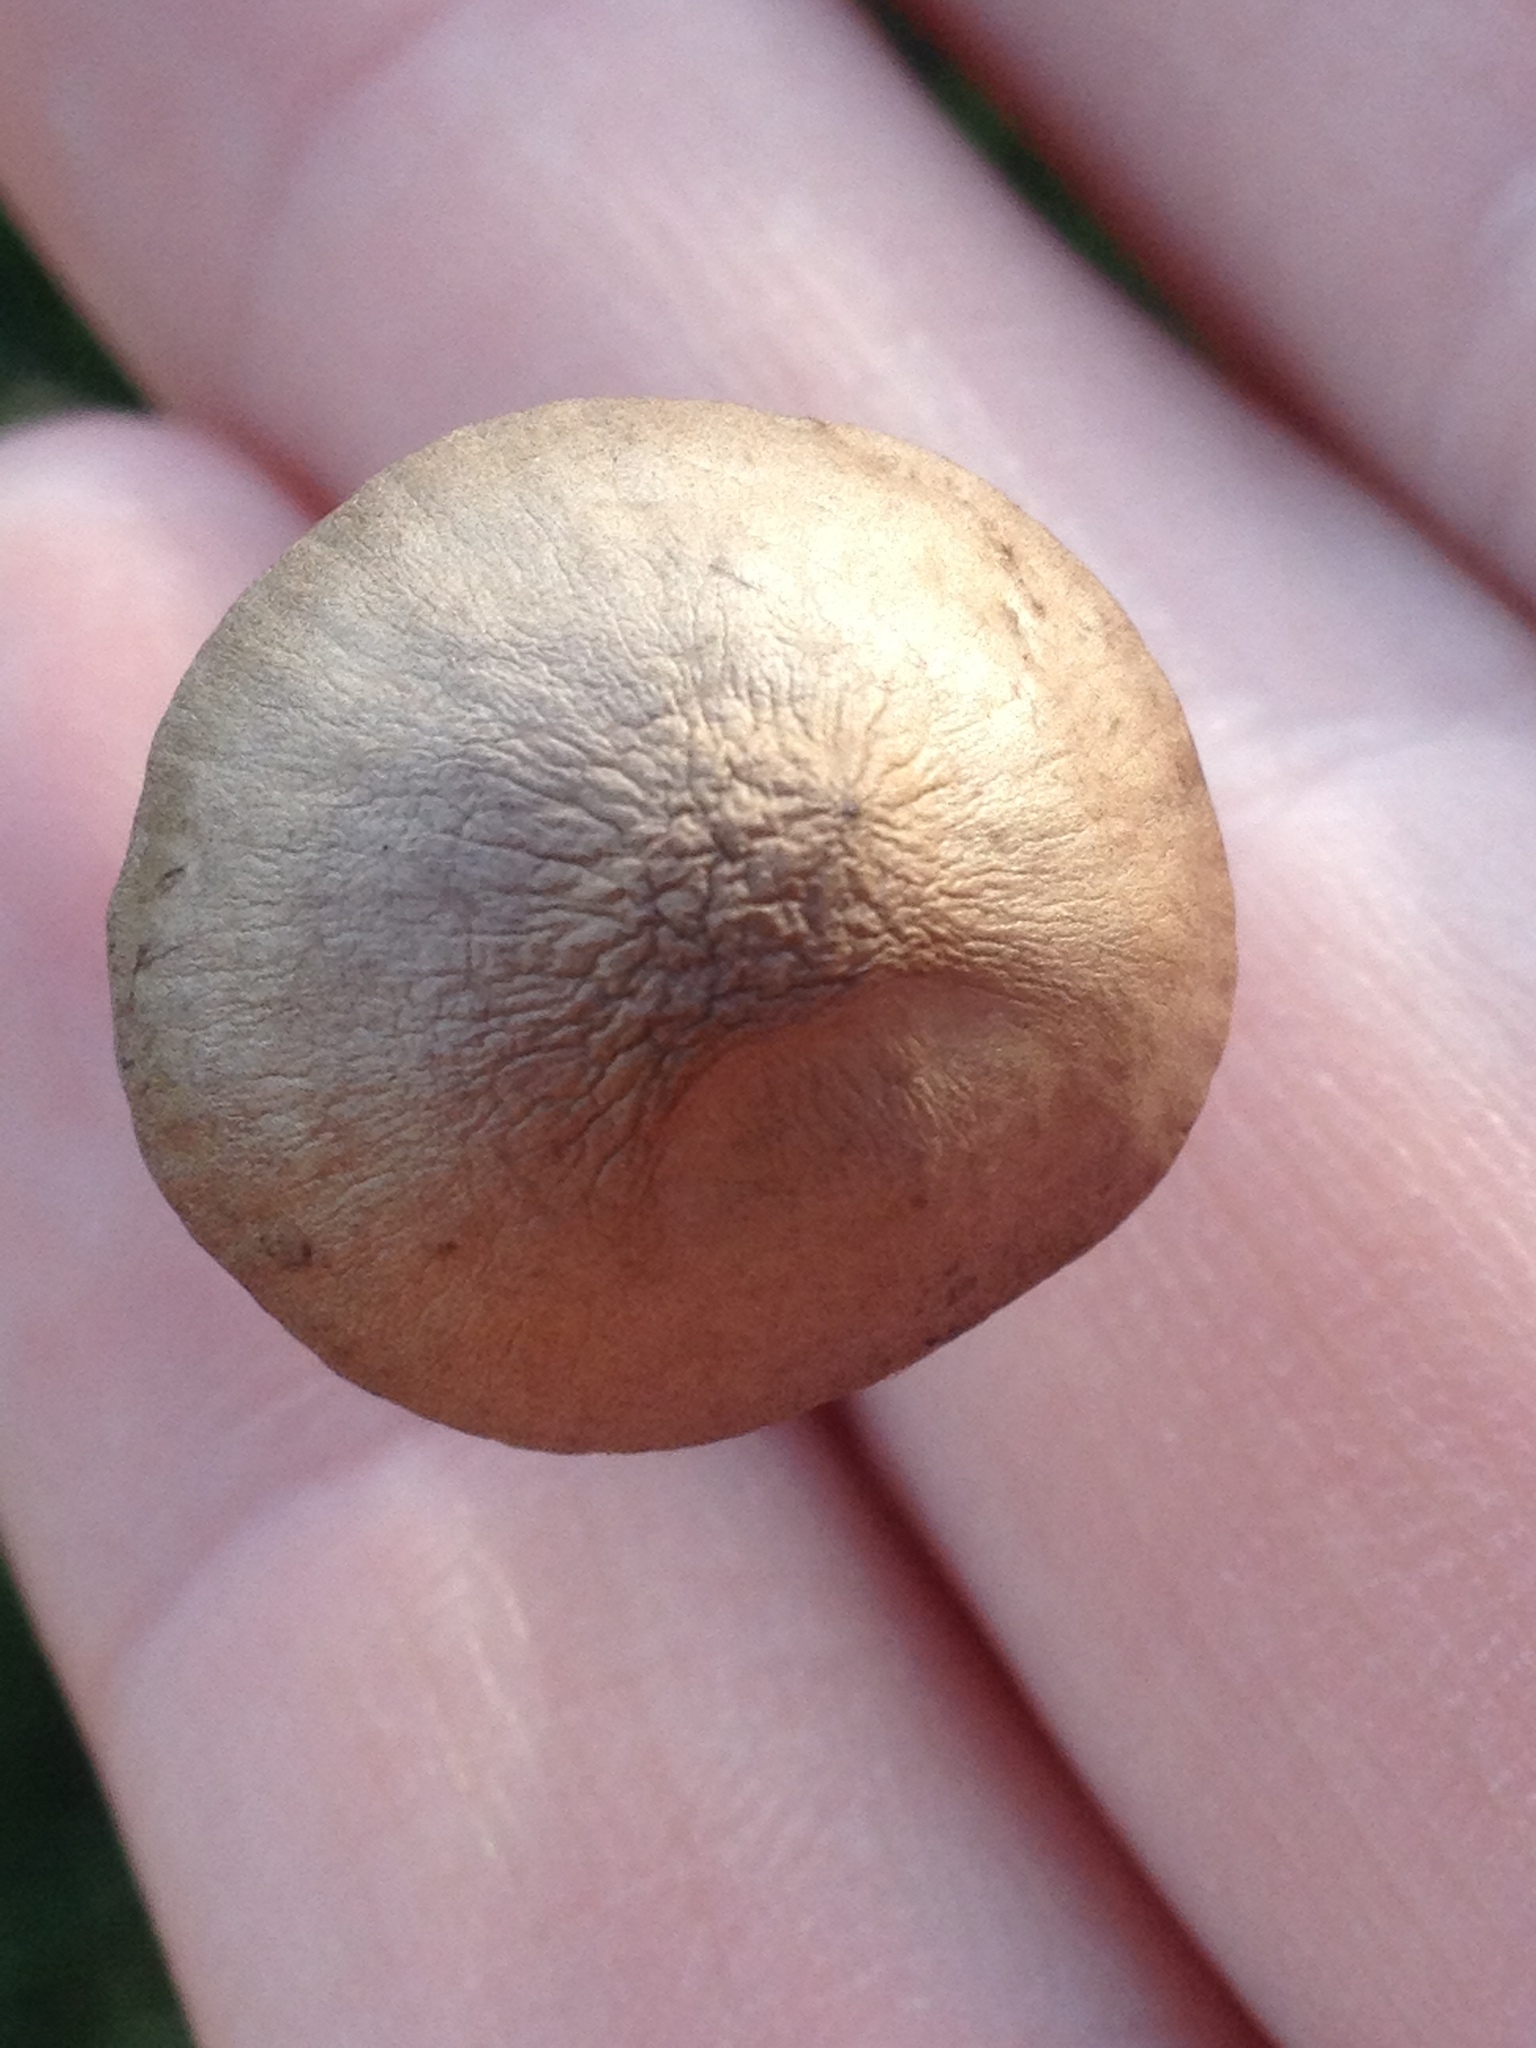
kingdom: Fungi
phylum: Basidiomycota
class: Agaricomycetes
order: Agaricales
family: Bolbitiaceae
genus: Panaeolina
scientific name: Panaeolina foenisecii
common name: Brown hay cap
